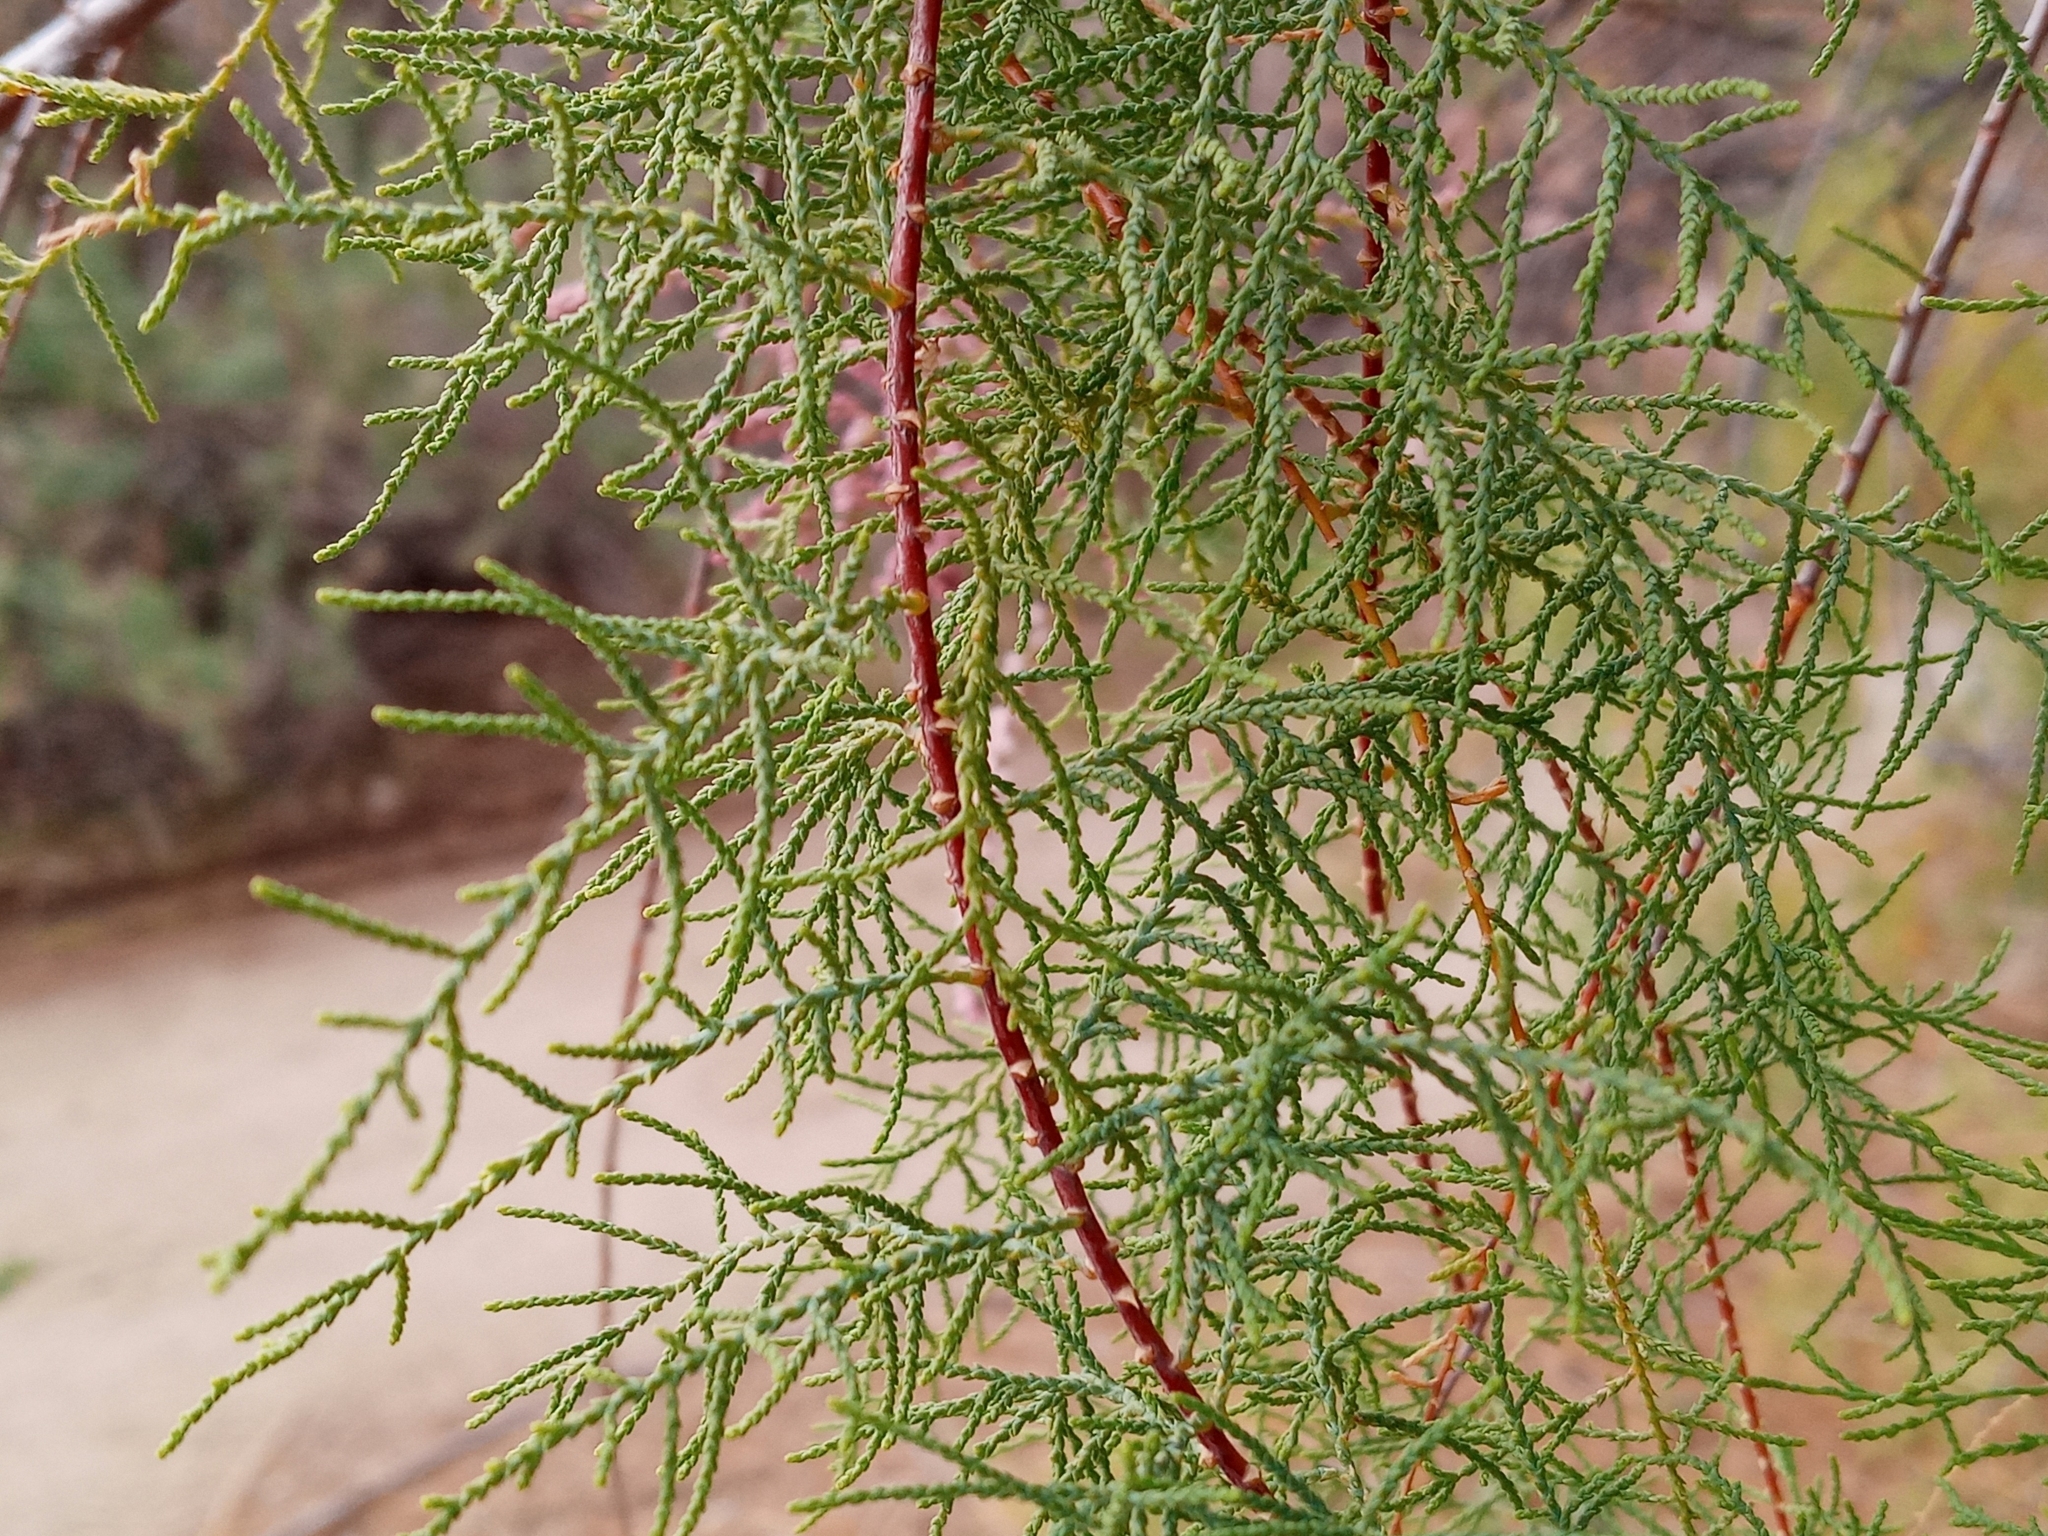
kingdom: Plantae
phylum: Tracheophyta
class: Magnoliopsida
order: Caryophyllales
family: Tamaricaceae
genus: Tamarix
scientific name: Tamarix
